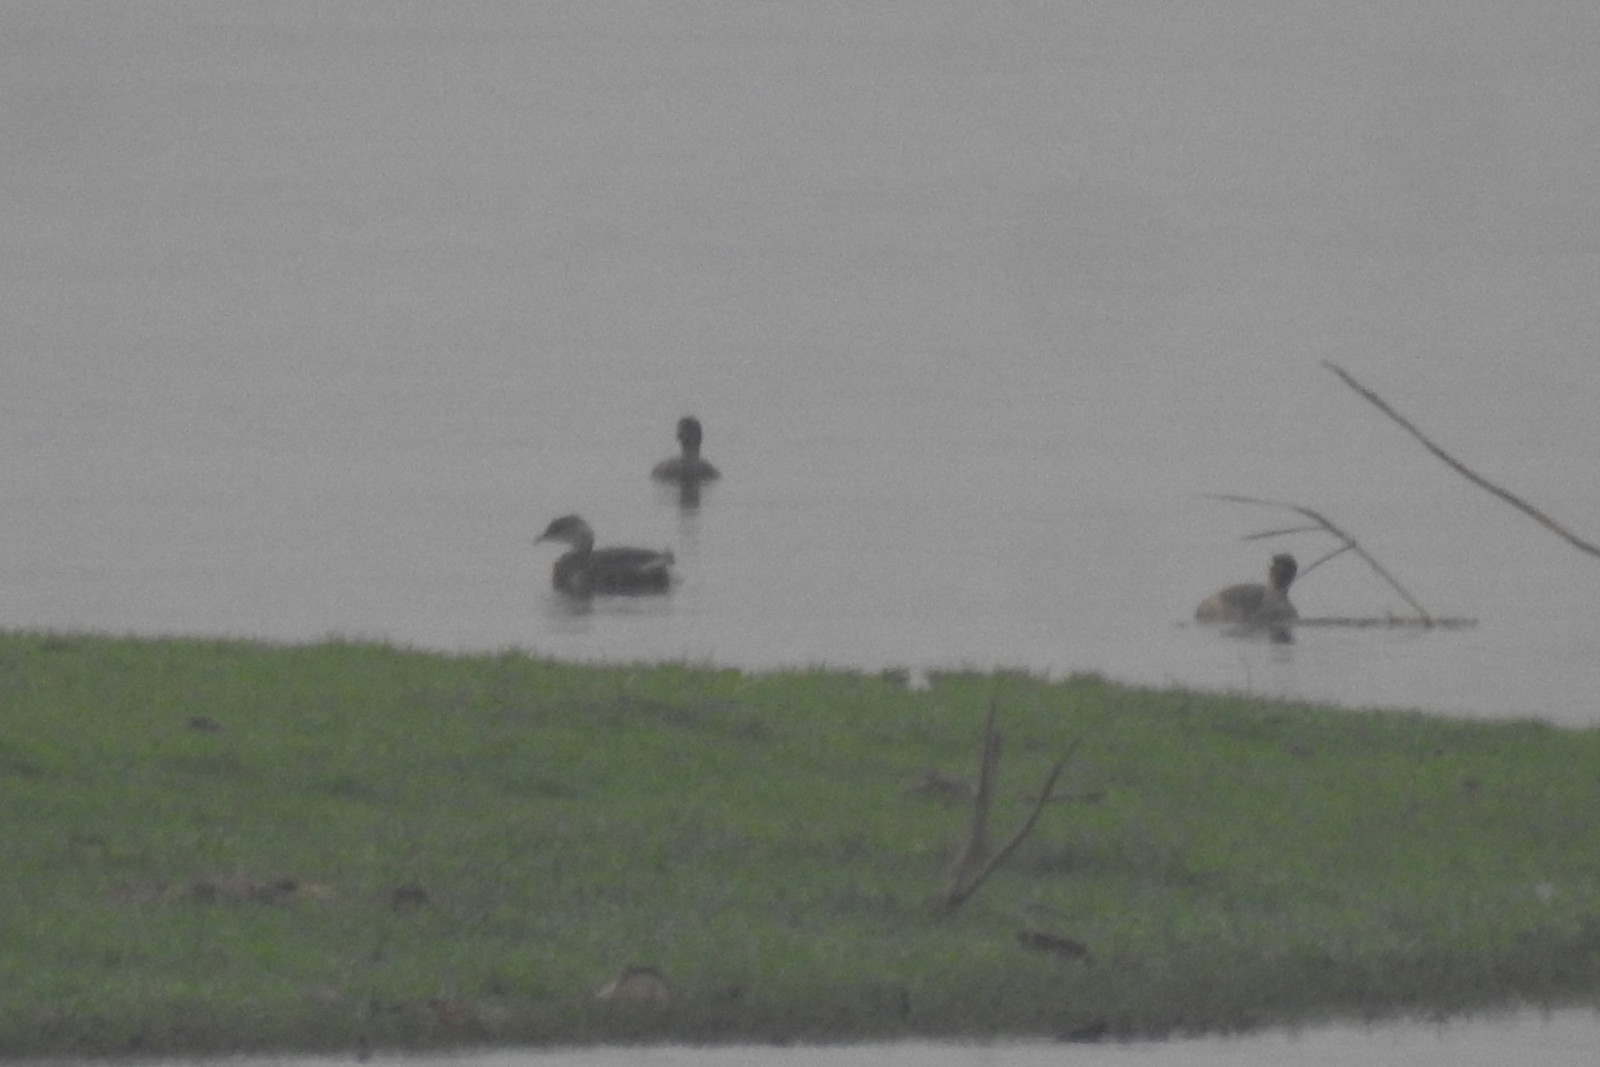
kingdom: Animalia
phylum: Chordata
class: Aves
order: Podicipediformes
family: Podicipedidae
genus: Tachybaptus
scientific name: Tachybaptus ruficollis
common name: Little grebe
